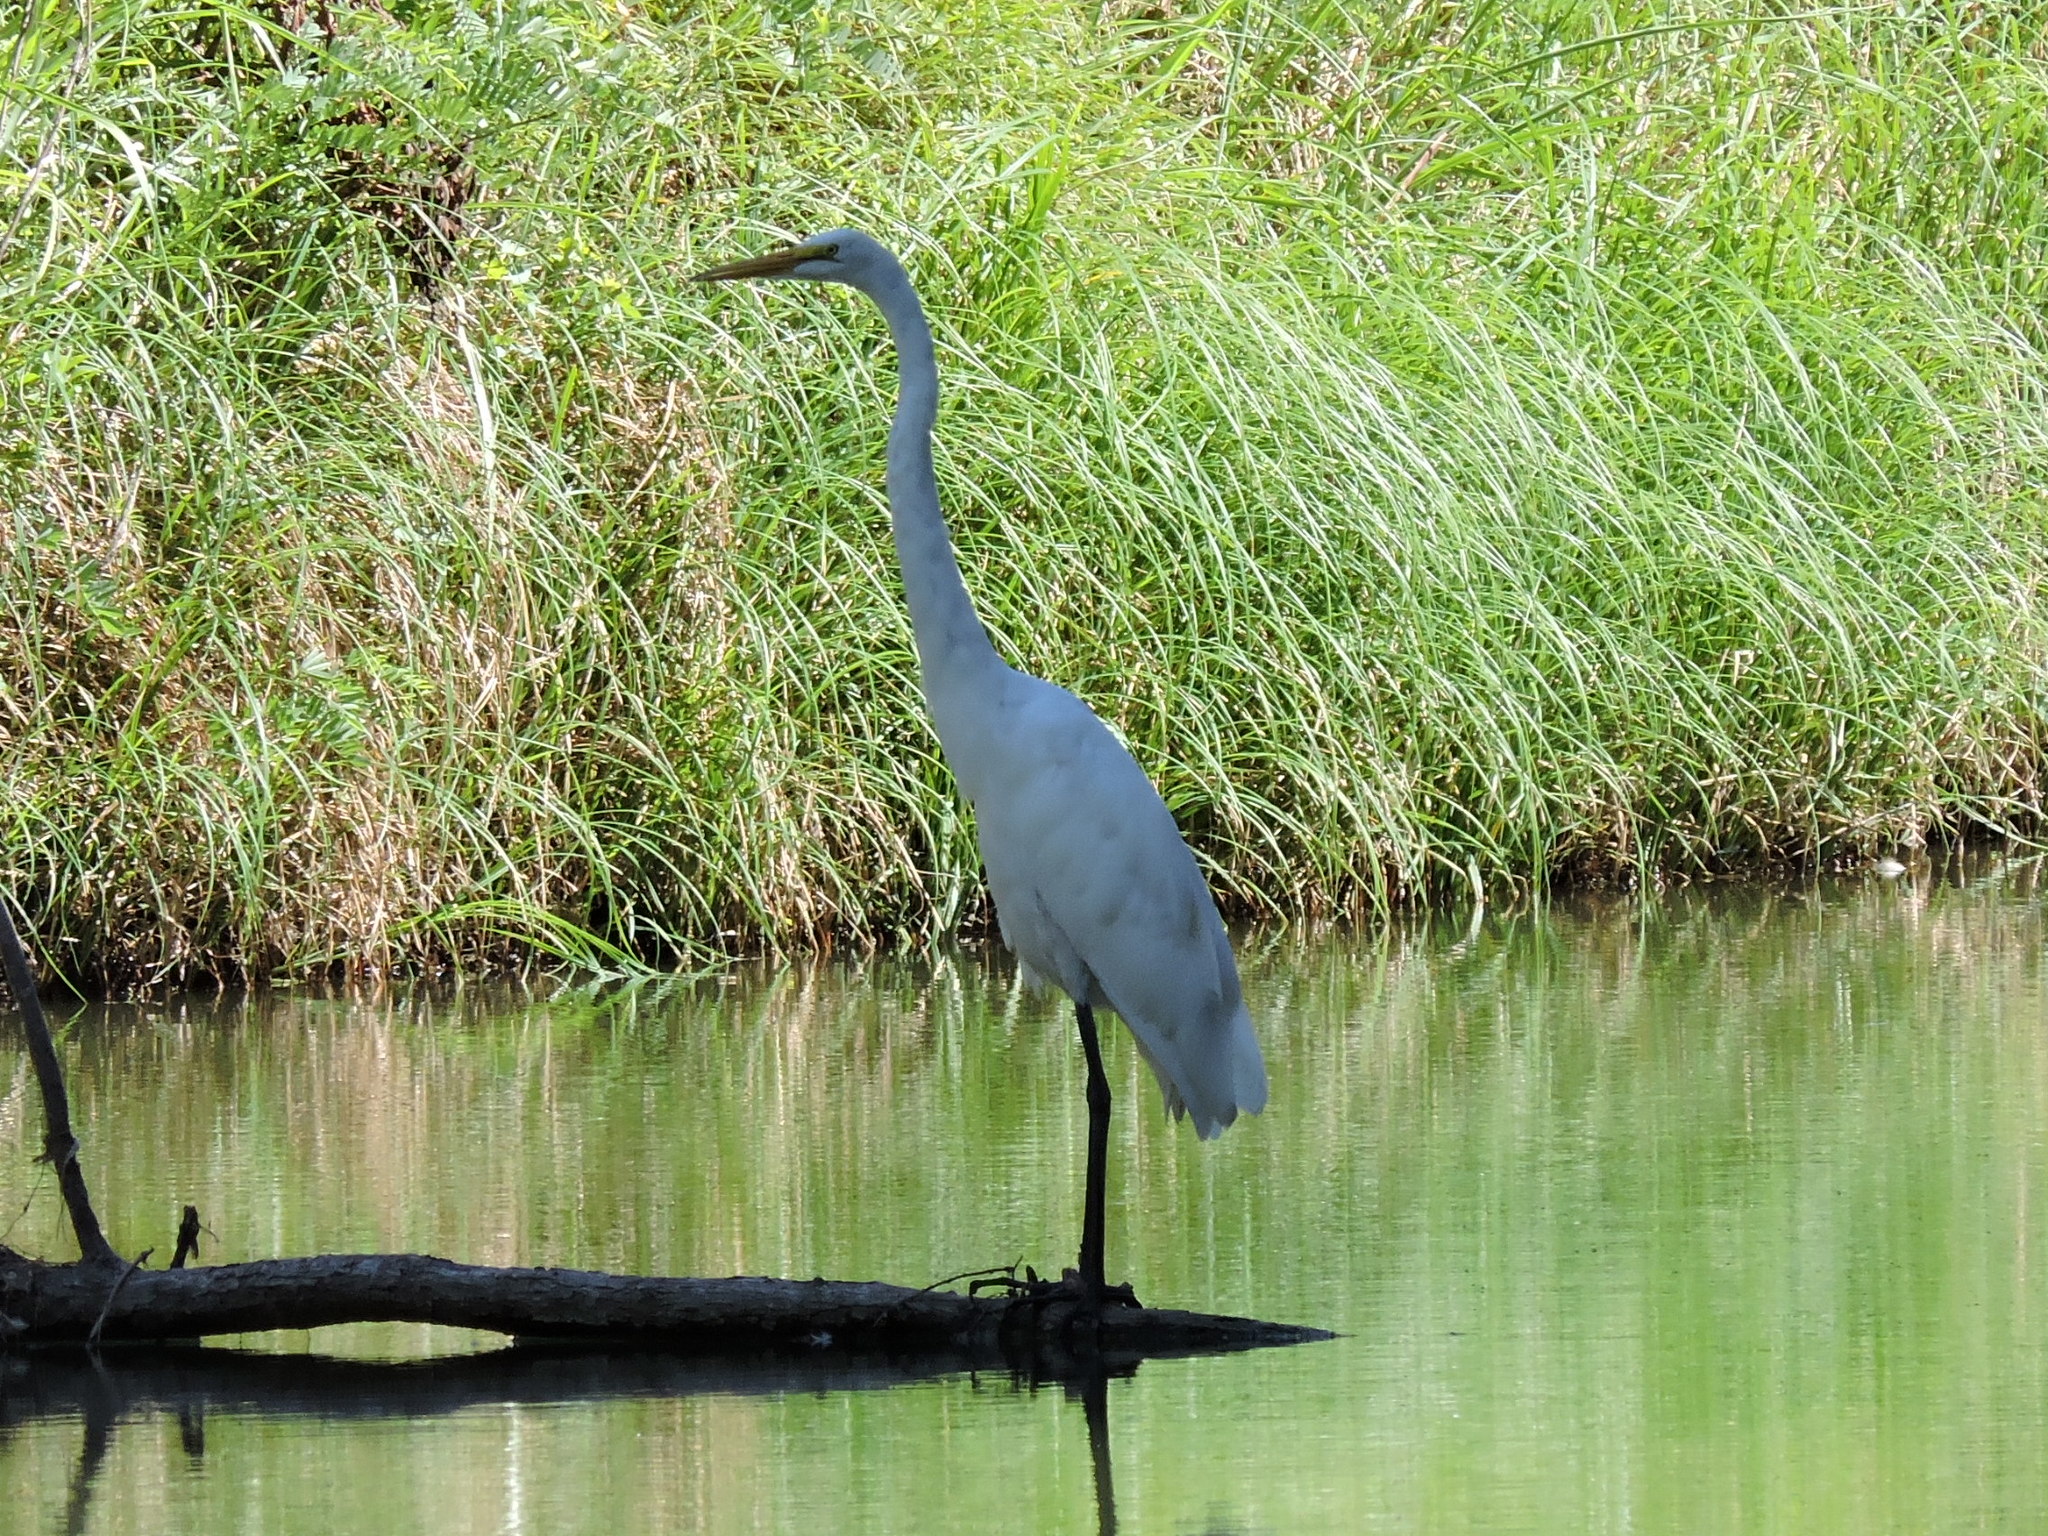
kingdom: Animalia
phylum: Chordata
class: Aves
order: Pelecaniformes
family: Ardeidae
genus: Ardea
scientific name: Ardea alba
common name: Great egret
